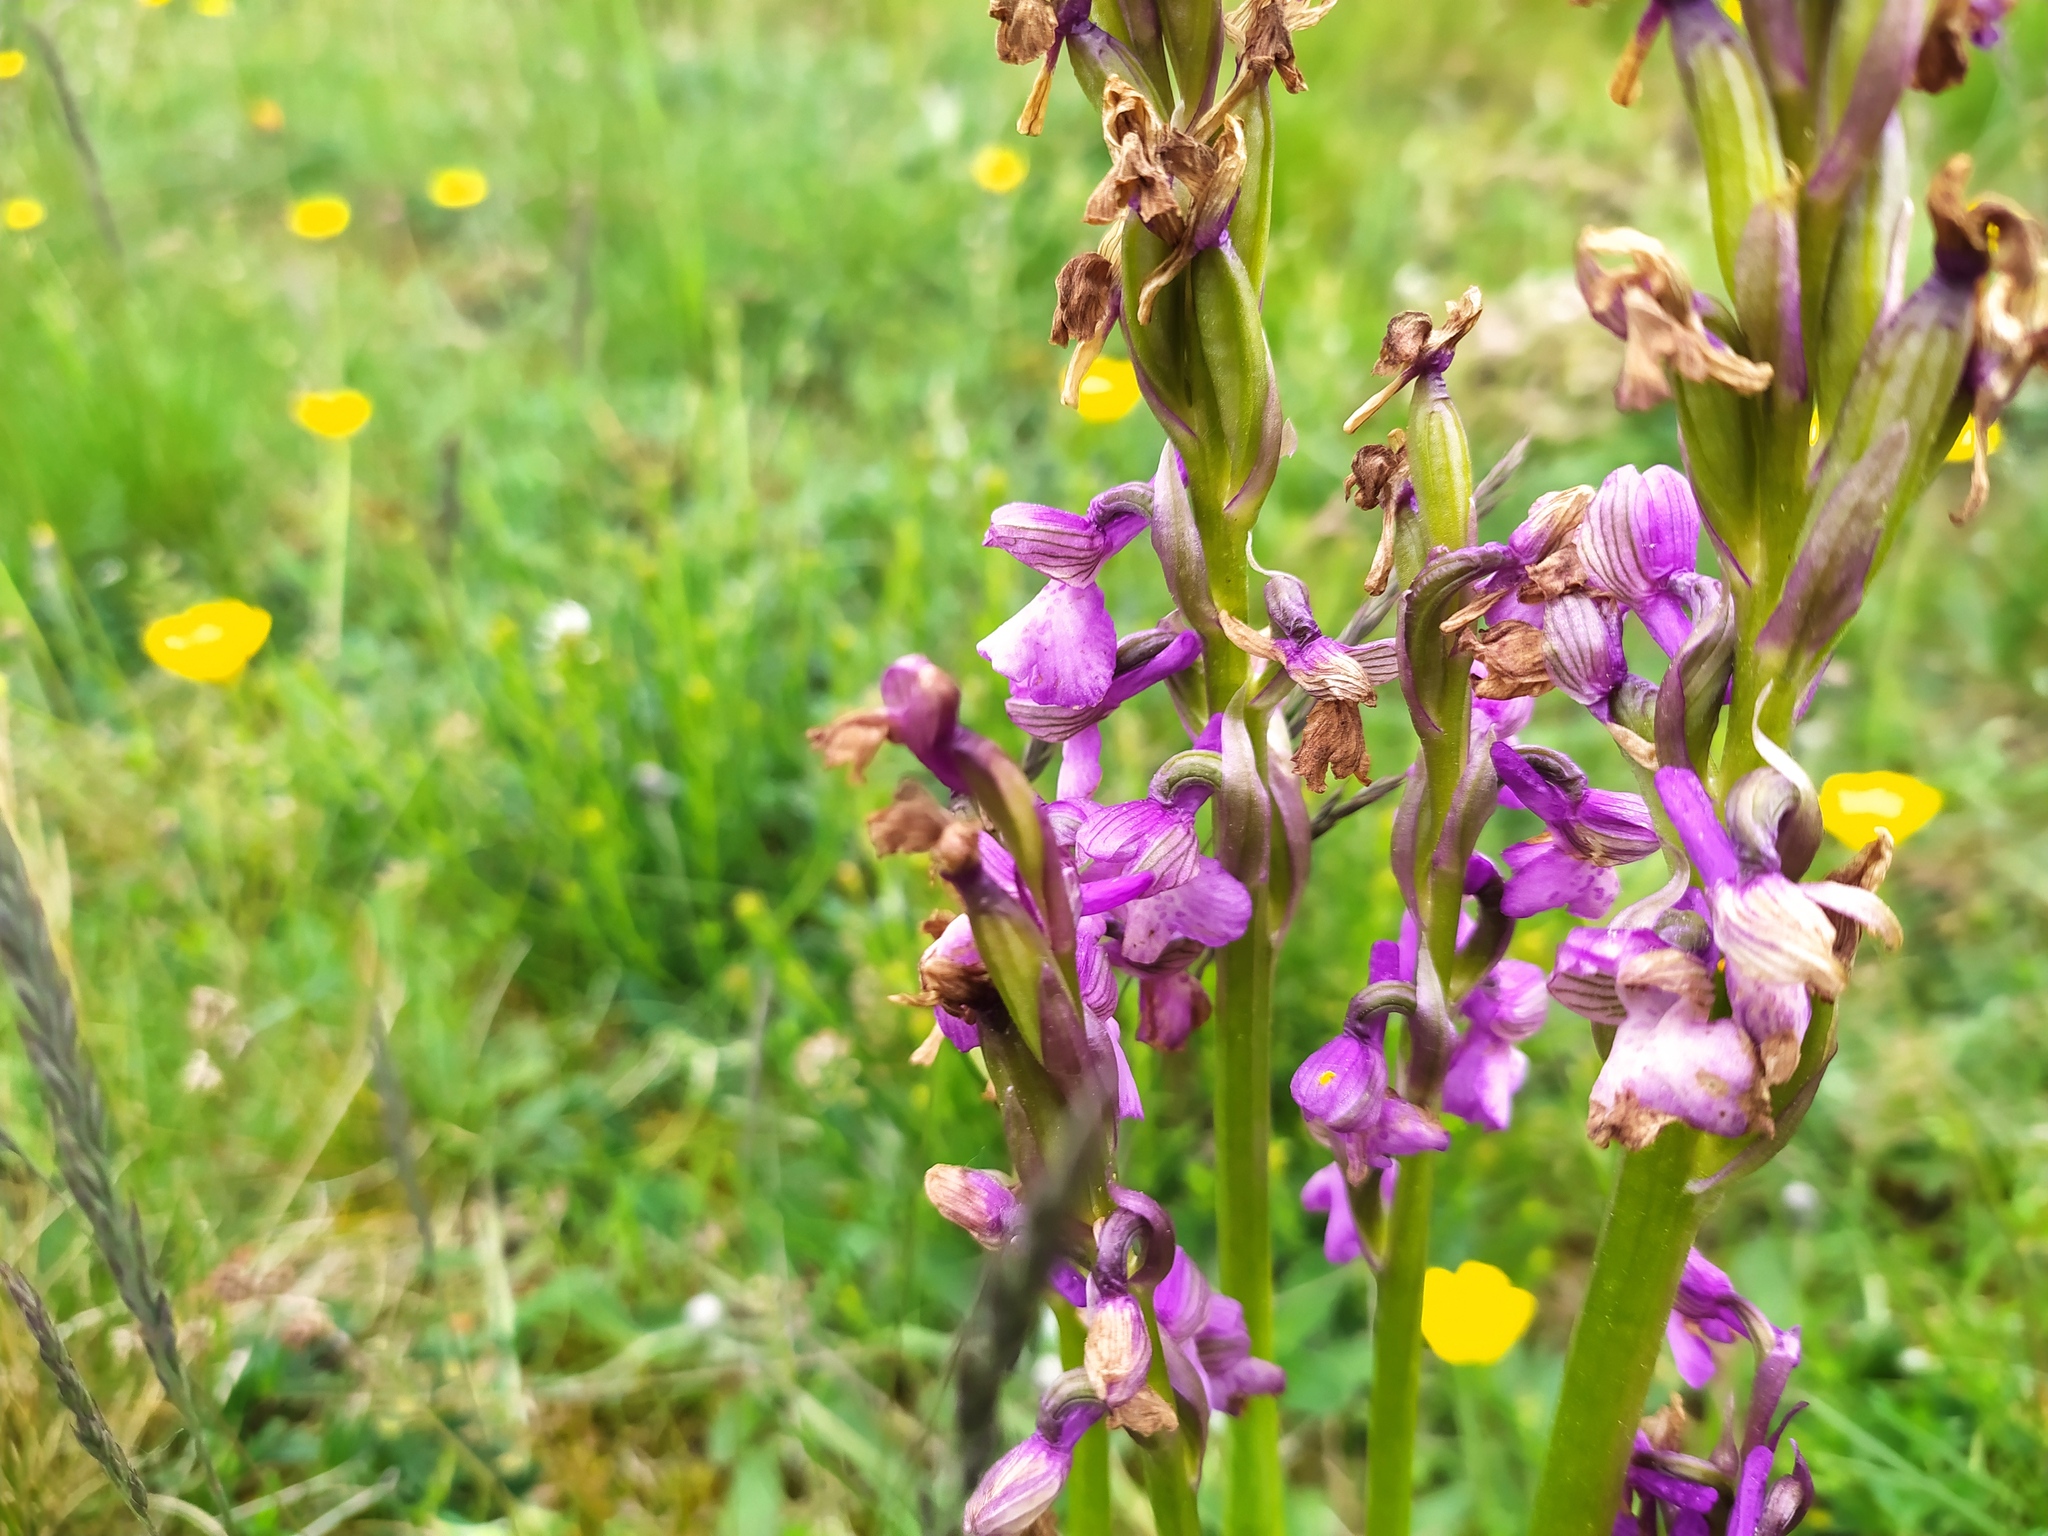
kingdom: Plantae
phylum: Tracheophyta
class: Liliopsida
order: Asparagales
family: Orchidaceae
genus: Anacamptis
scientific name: Anacamptis morio
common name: Green-winged orchid
